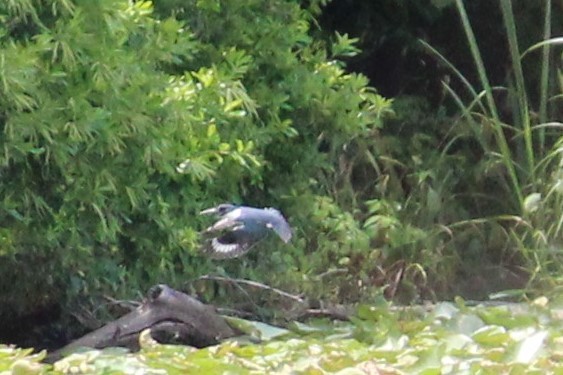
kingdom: Animalia
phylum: Chordata
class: Aves
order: Coraciiformes
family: Alcedinidae
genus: Megaceryle
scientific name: Megaceryle alcyon
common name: Belted kingfisher
